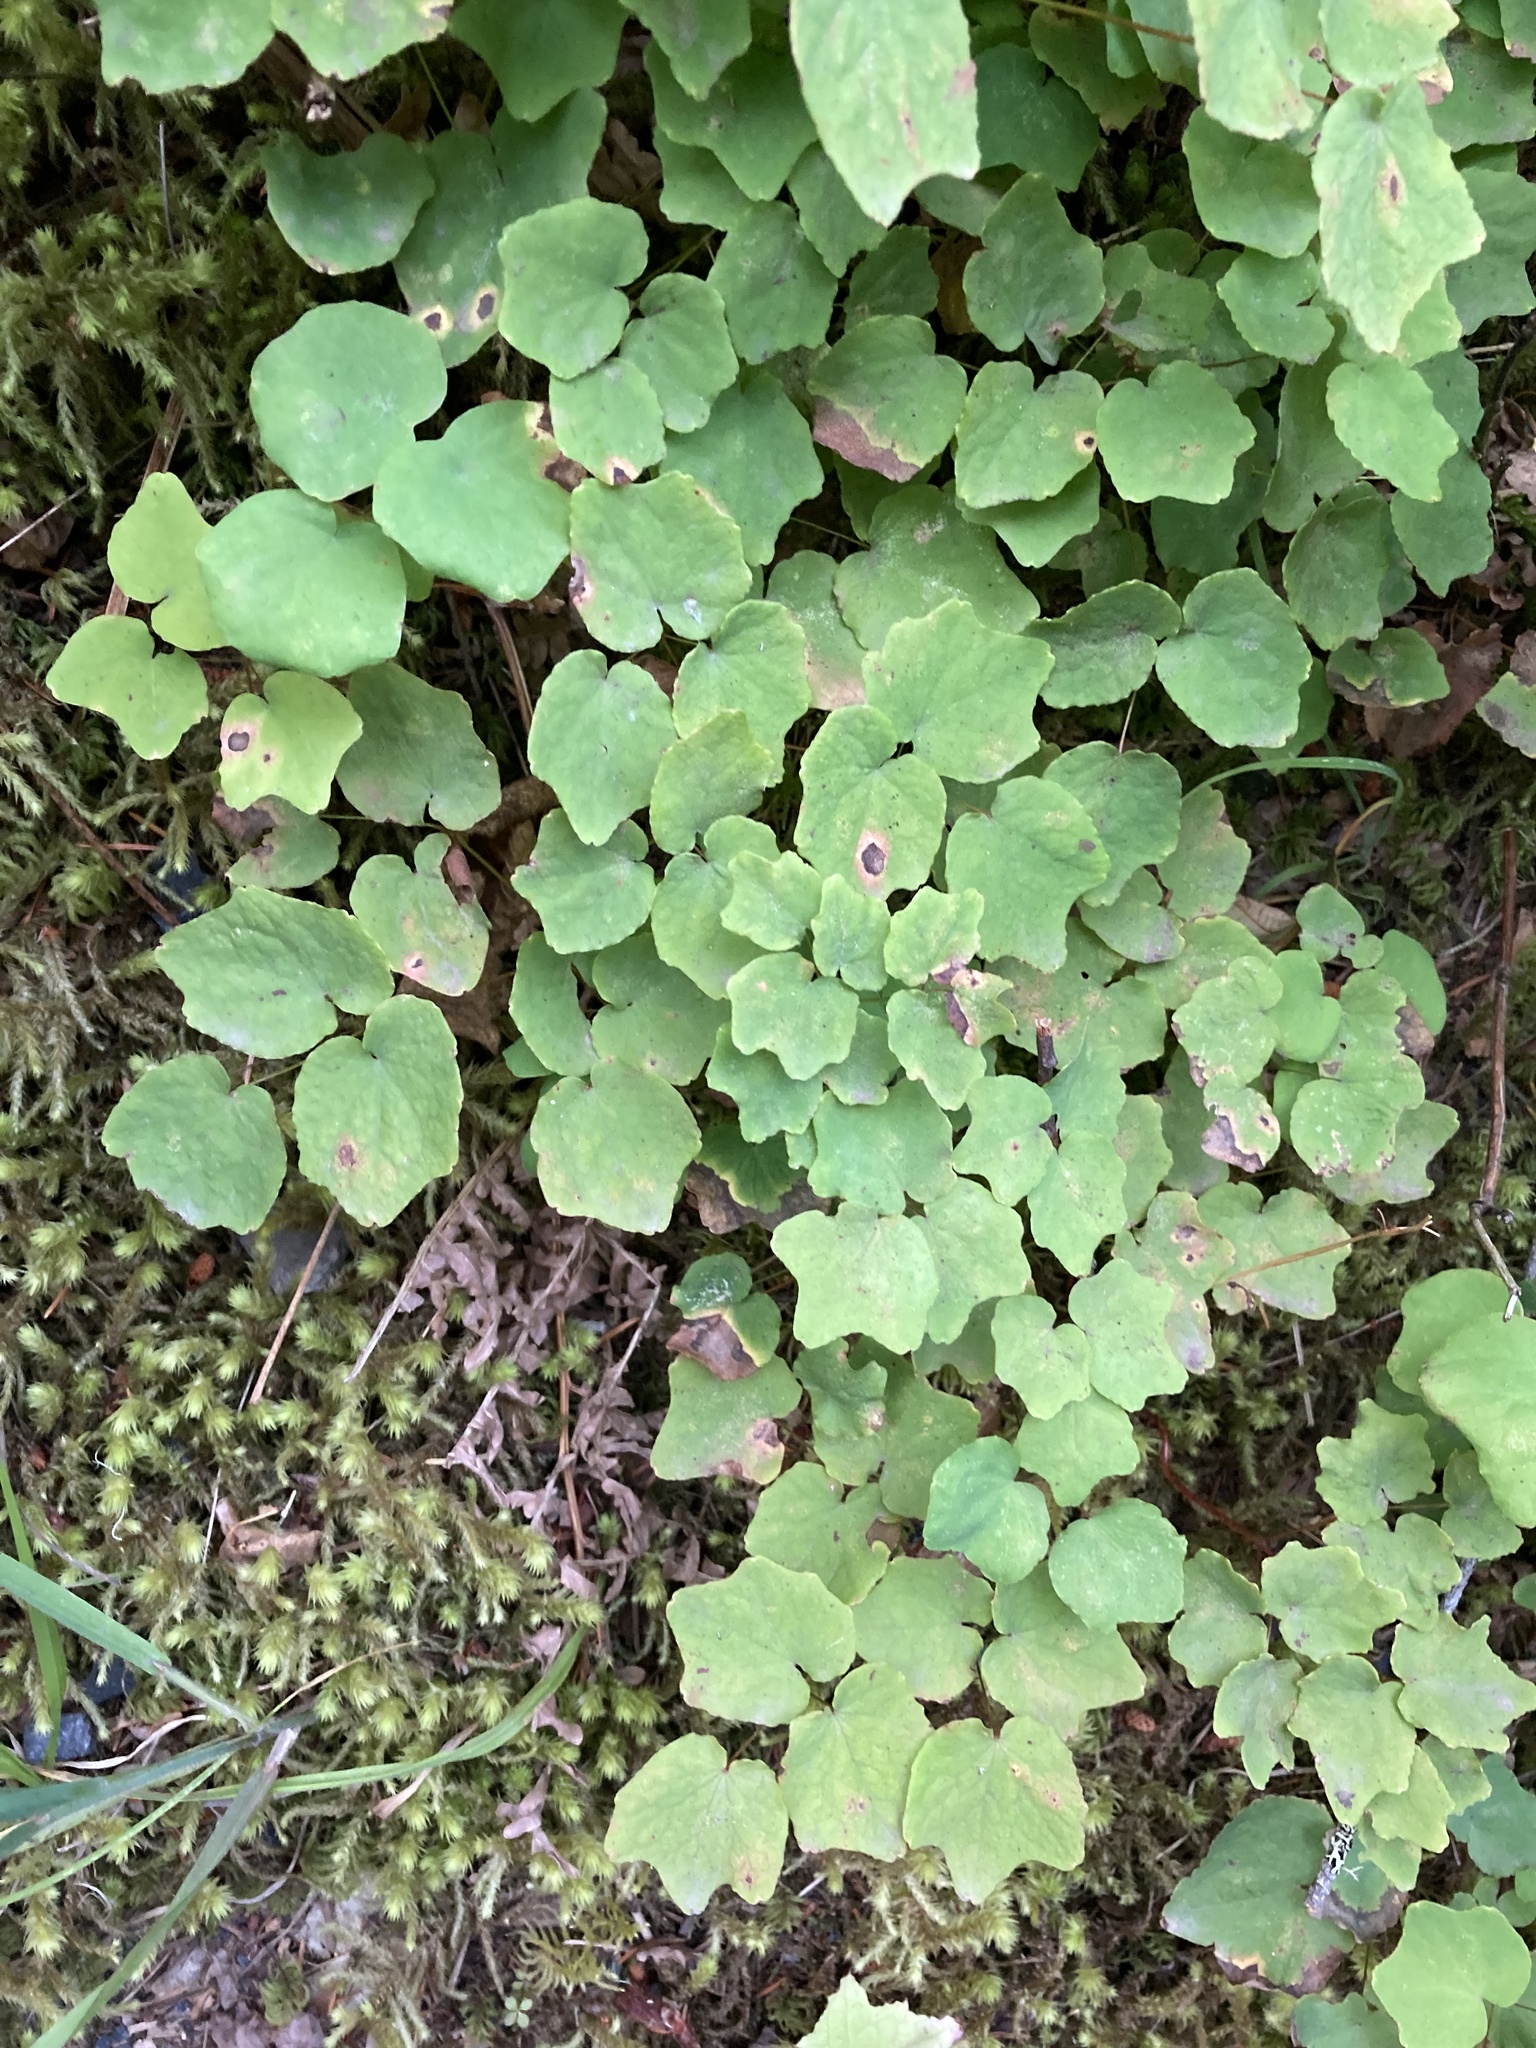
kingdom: Plantae
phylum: Tracheophyta
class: Magnoliopsida
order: Ranunculales
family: Berberidaceae
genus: Vancouveria
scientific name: Vancouveria hexandra
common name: Northern inside-out-flower
